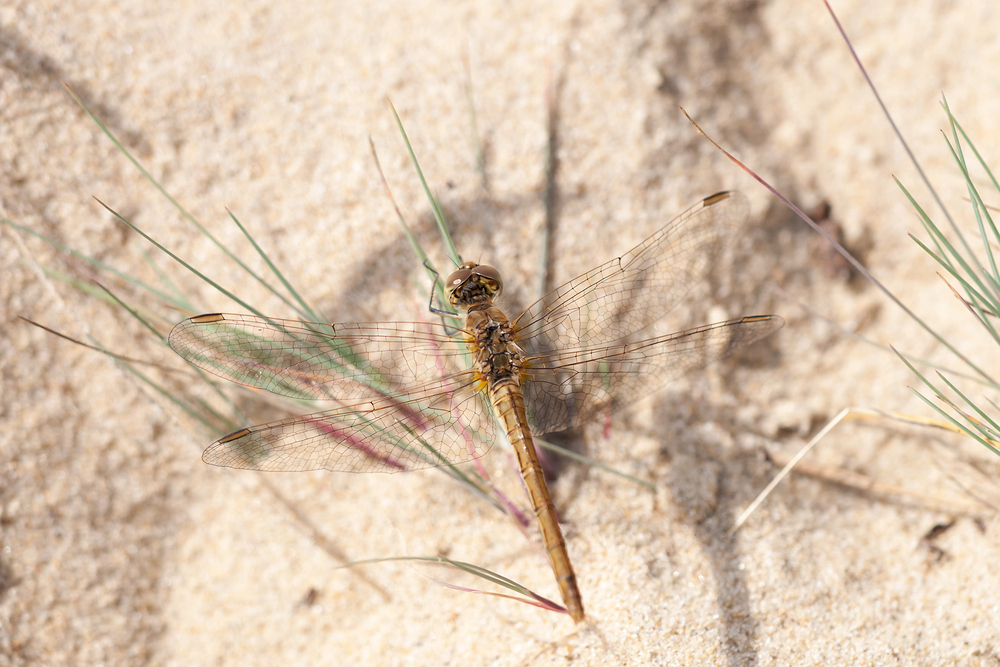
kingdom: Animalia
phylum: Arthropoda
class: Insecta
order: Odonata
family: Libellulidae
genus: Sympetrum
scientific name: Sympetrum meridionale
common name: Southern darter
